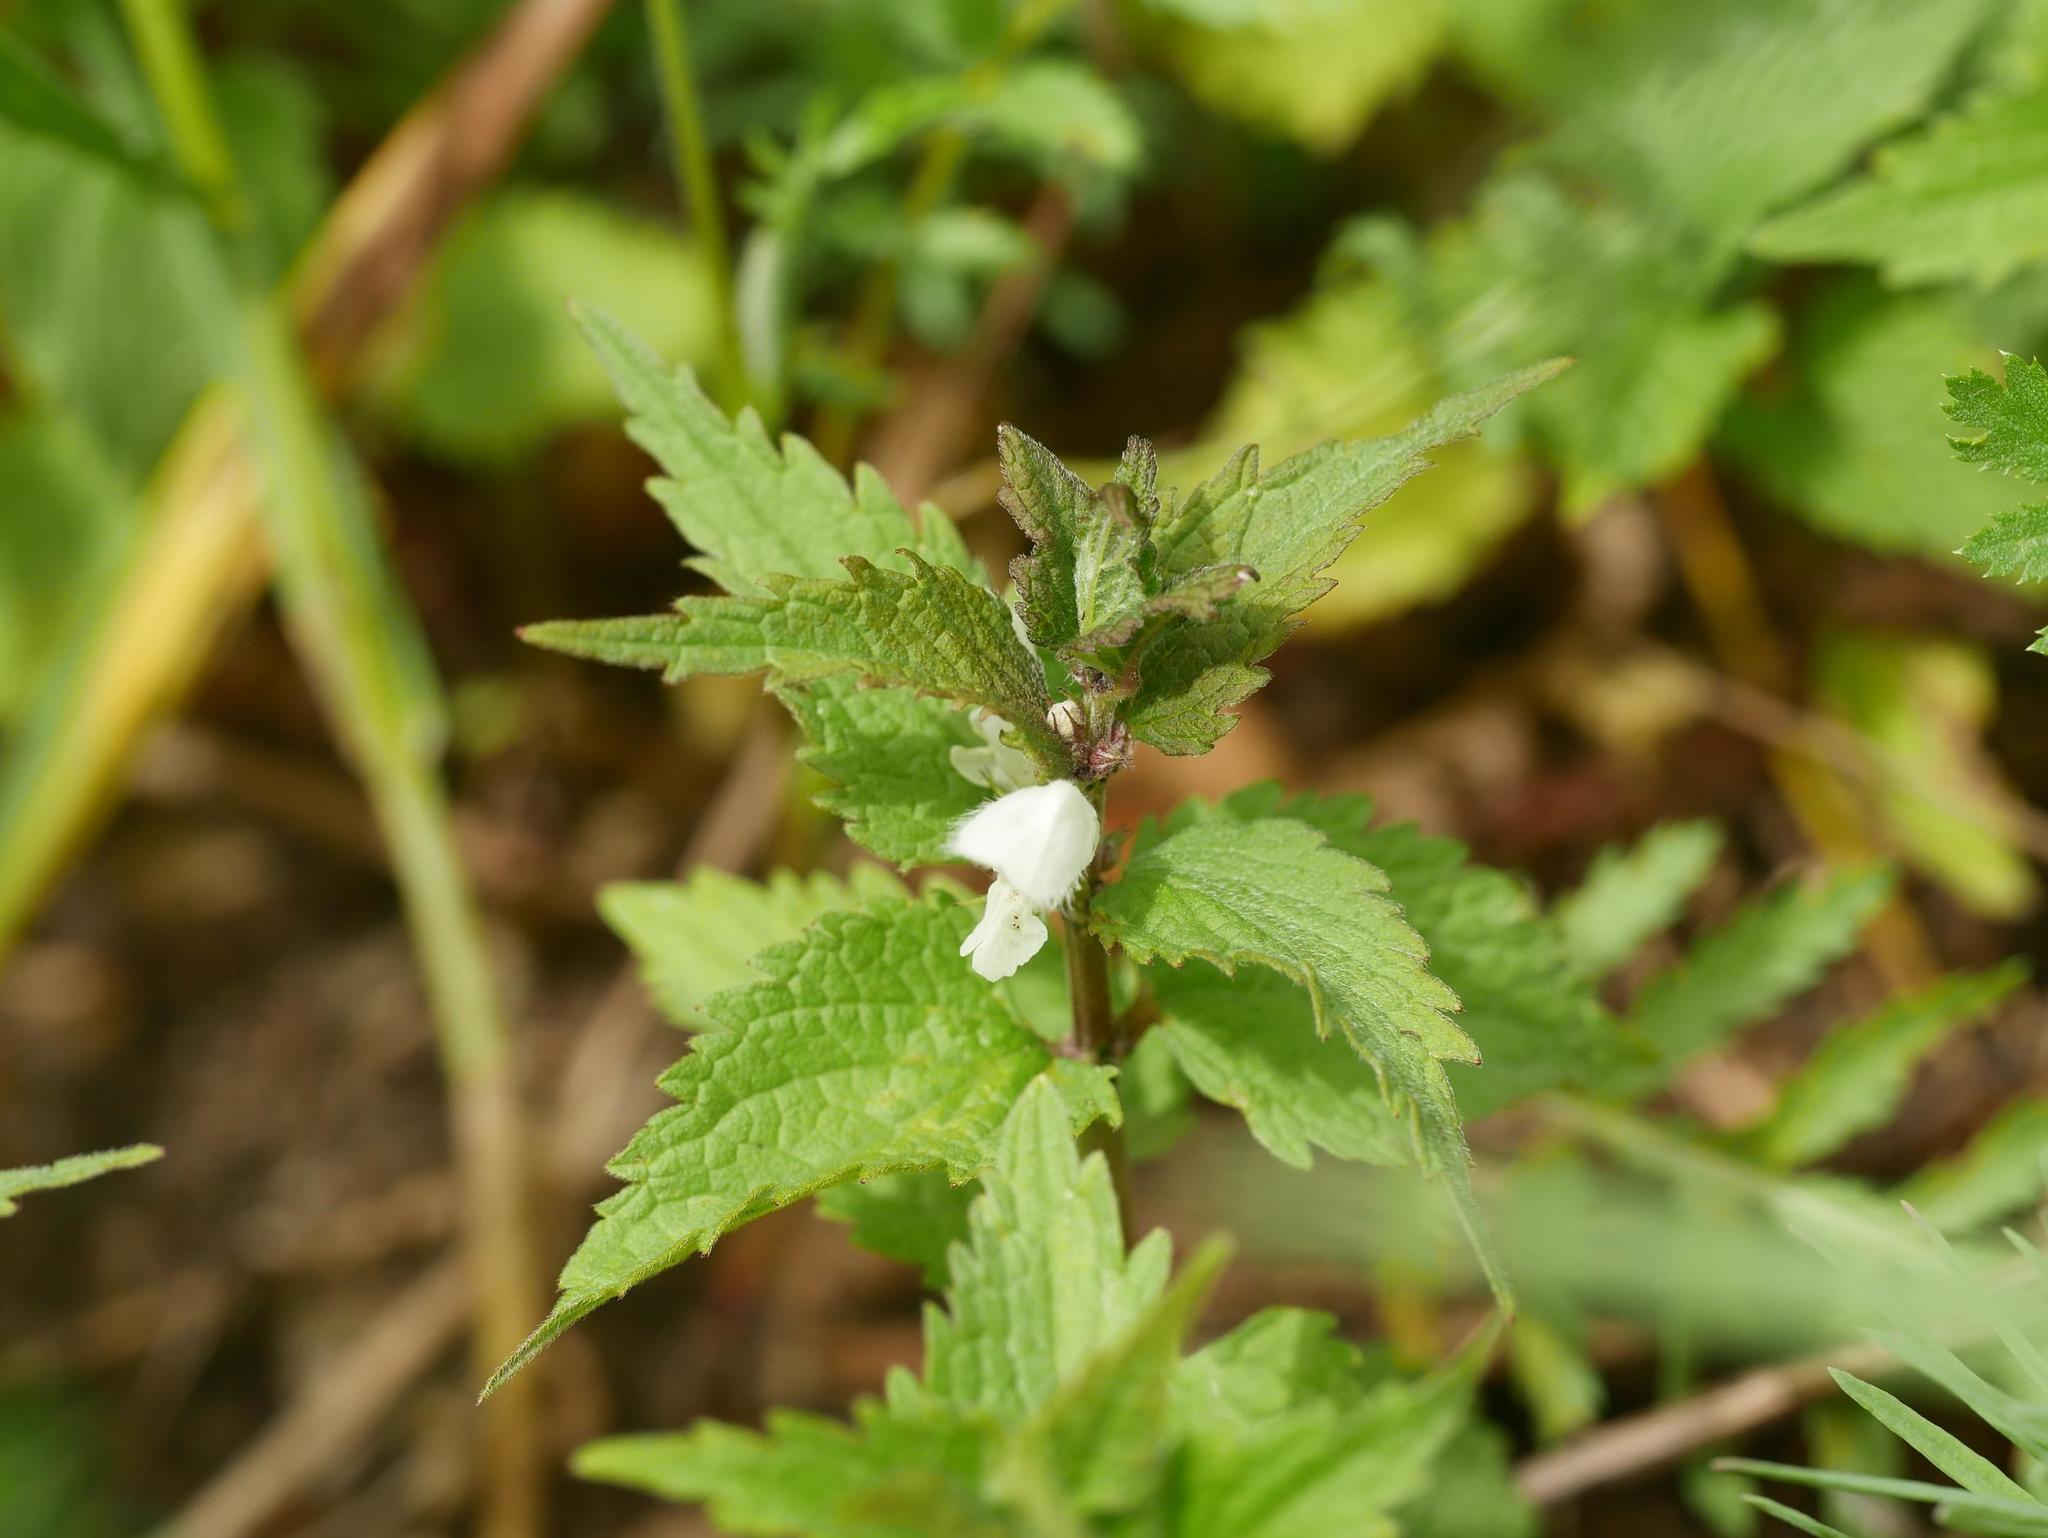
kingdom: Plantae
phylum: Tracheophyta
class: Magnoliopsida
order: Lamiales
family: Lamiaceae
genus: Lamium
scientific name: Lamium album
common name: White dead-nettle
